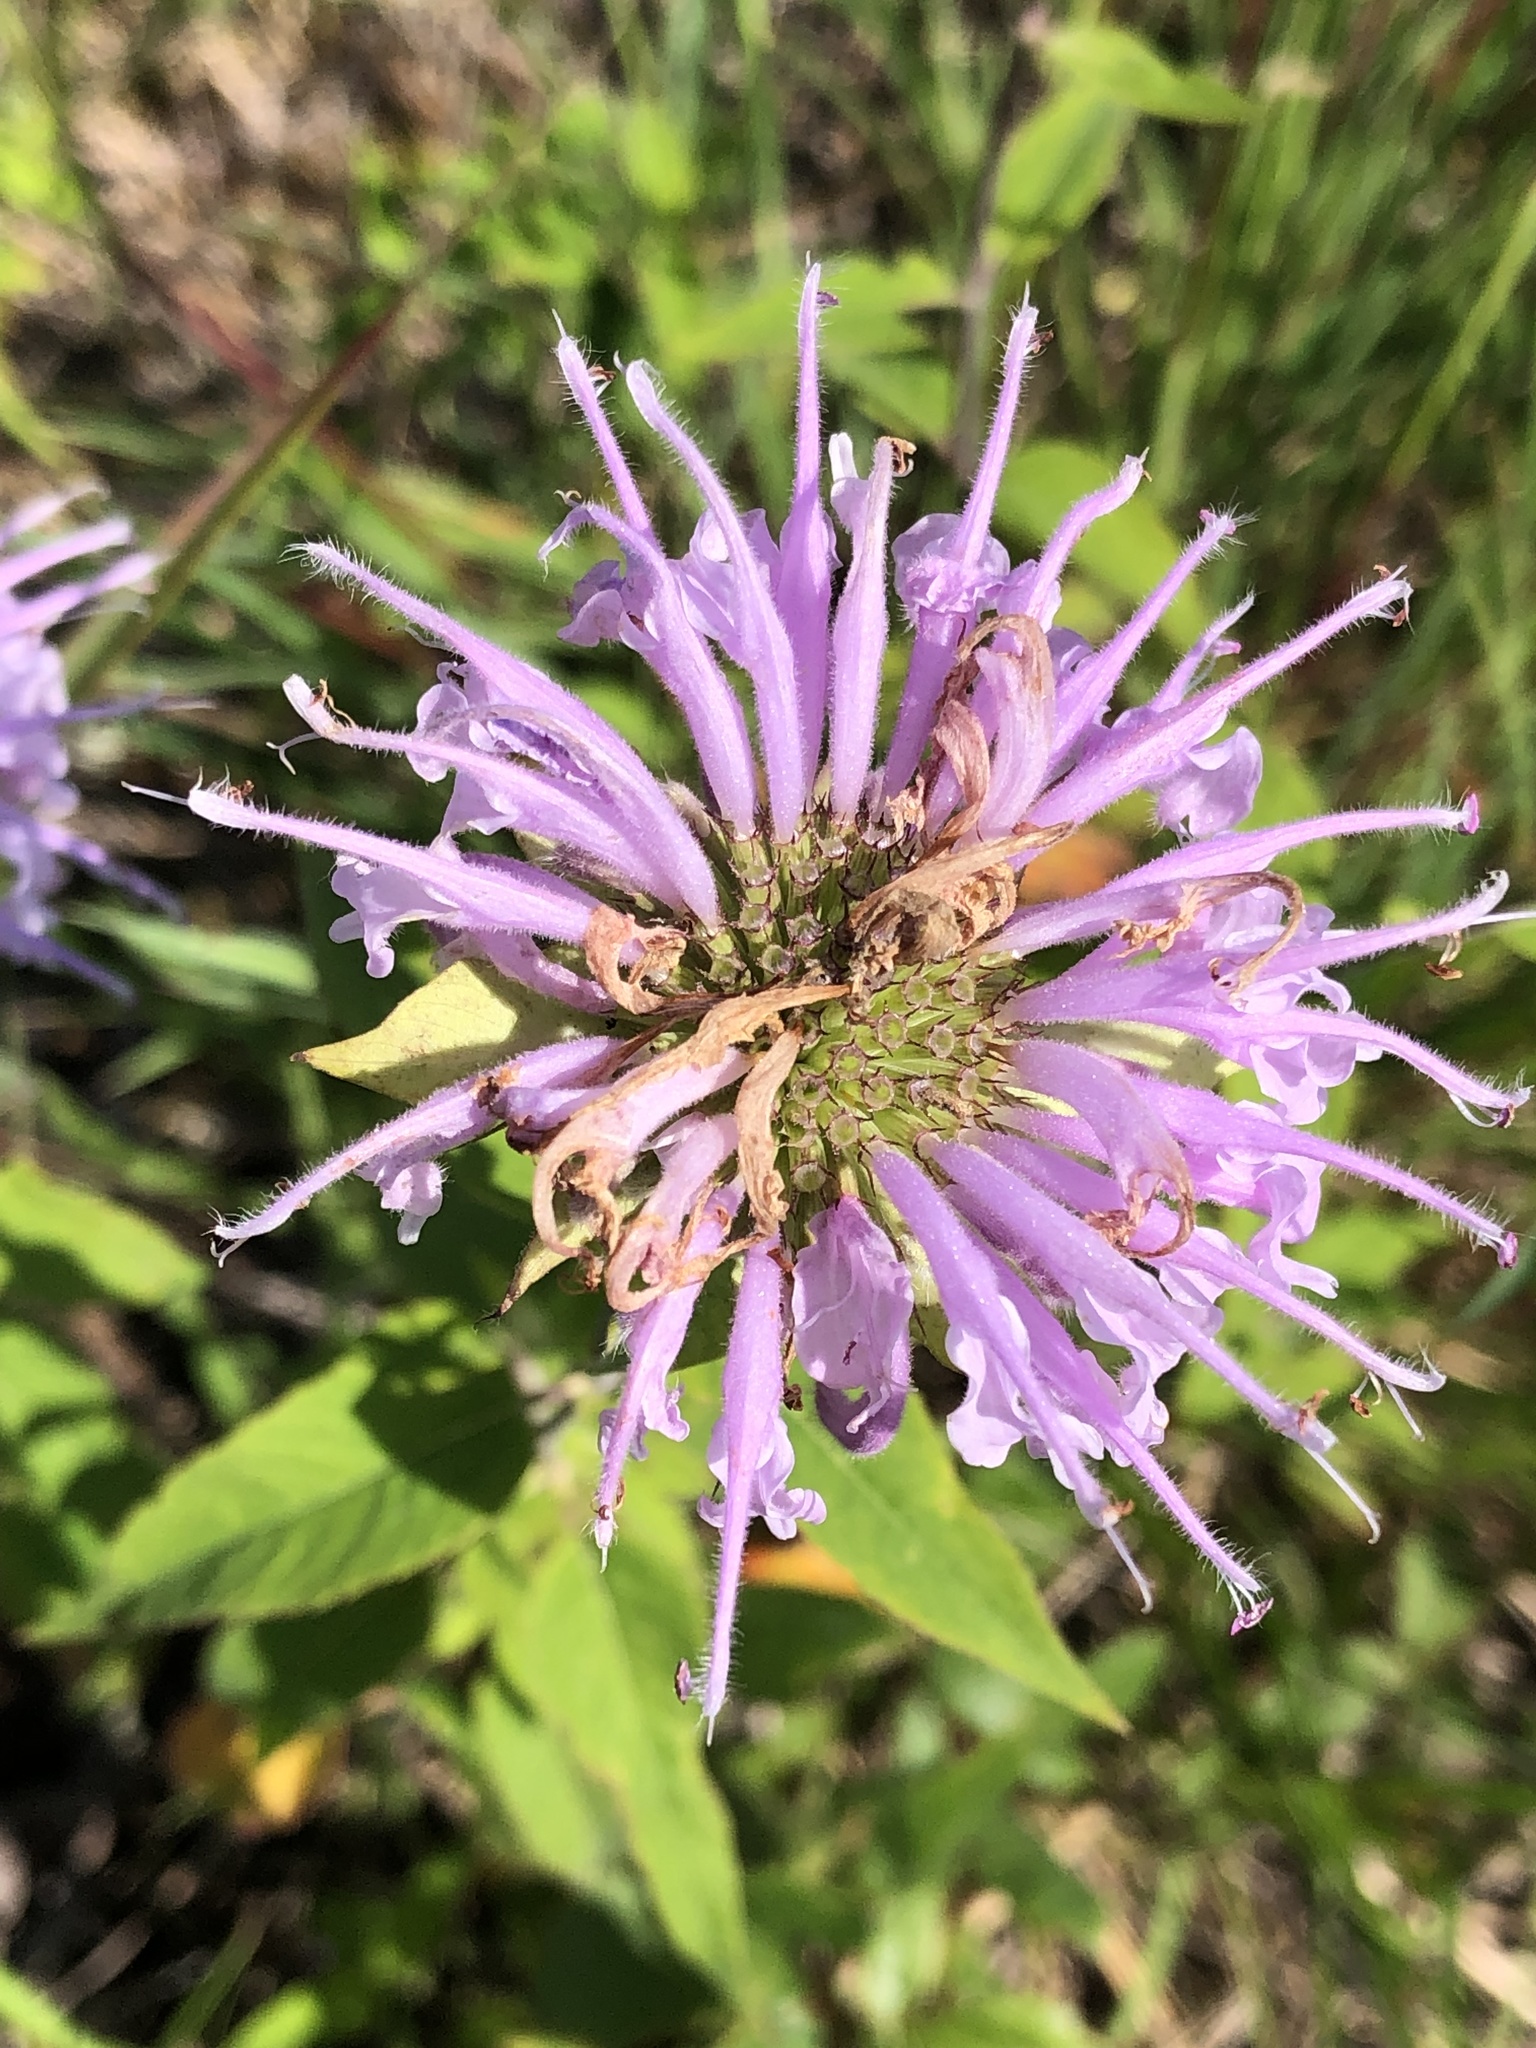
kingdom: Plantae
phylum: Tracheophyta
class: Magnoliopsida
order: Lamiales
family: Lamiaceae
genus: Monarda
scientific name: Monarda fistulosa
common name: Purple beebalm
